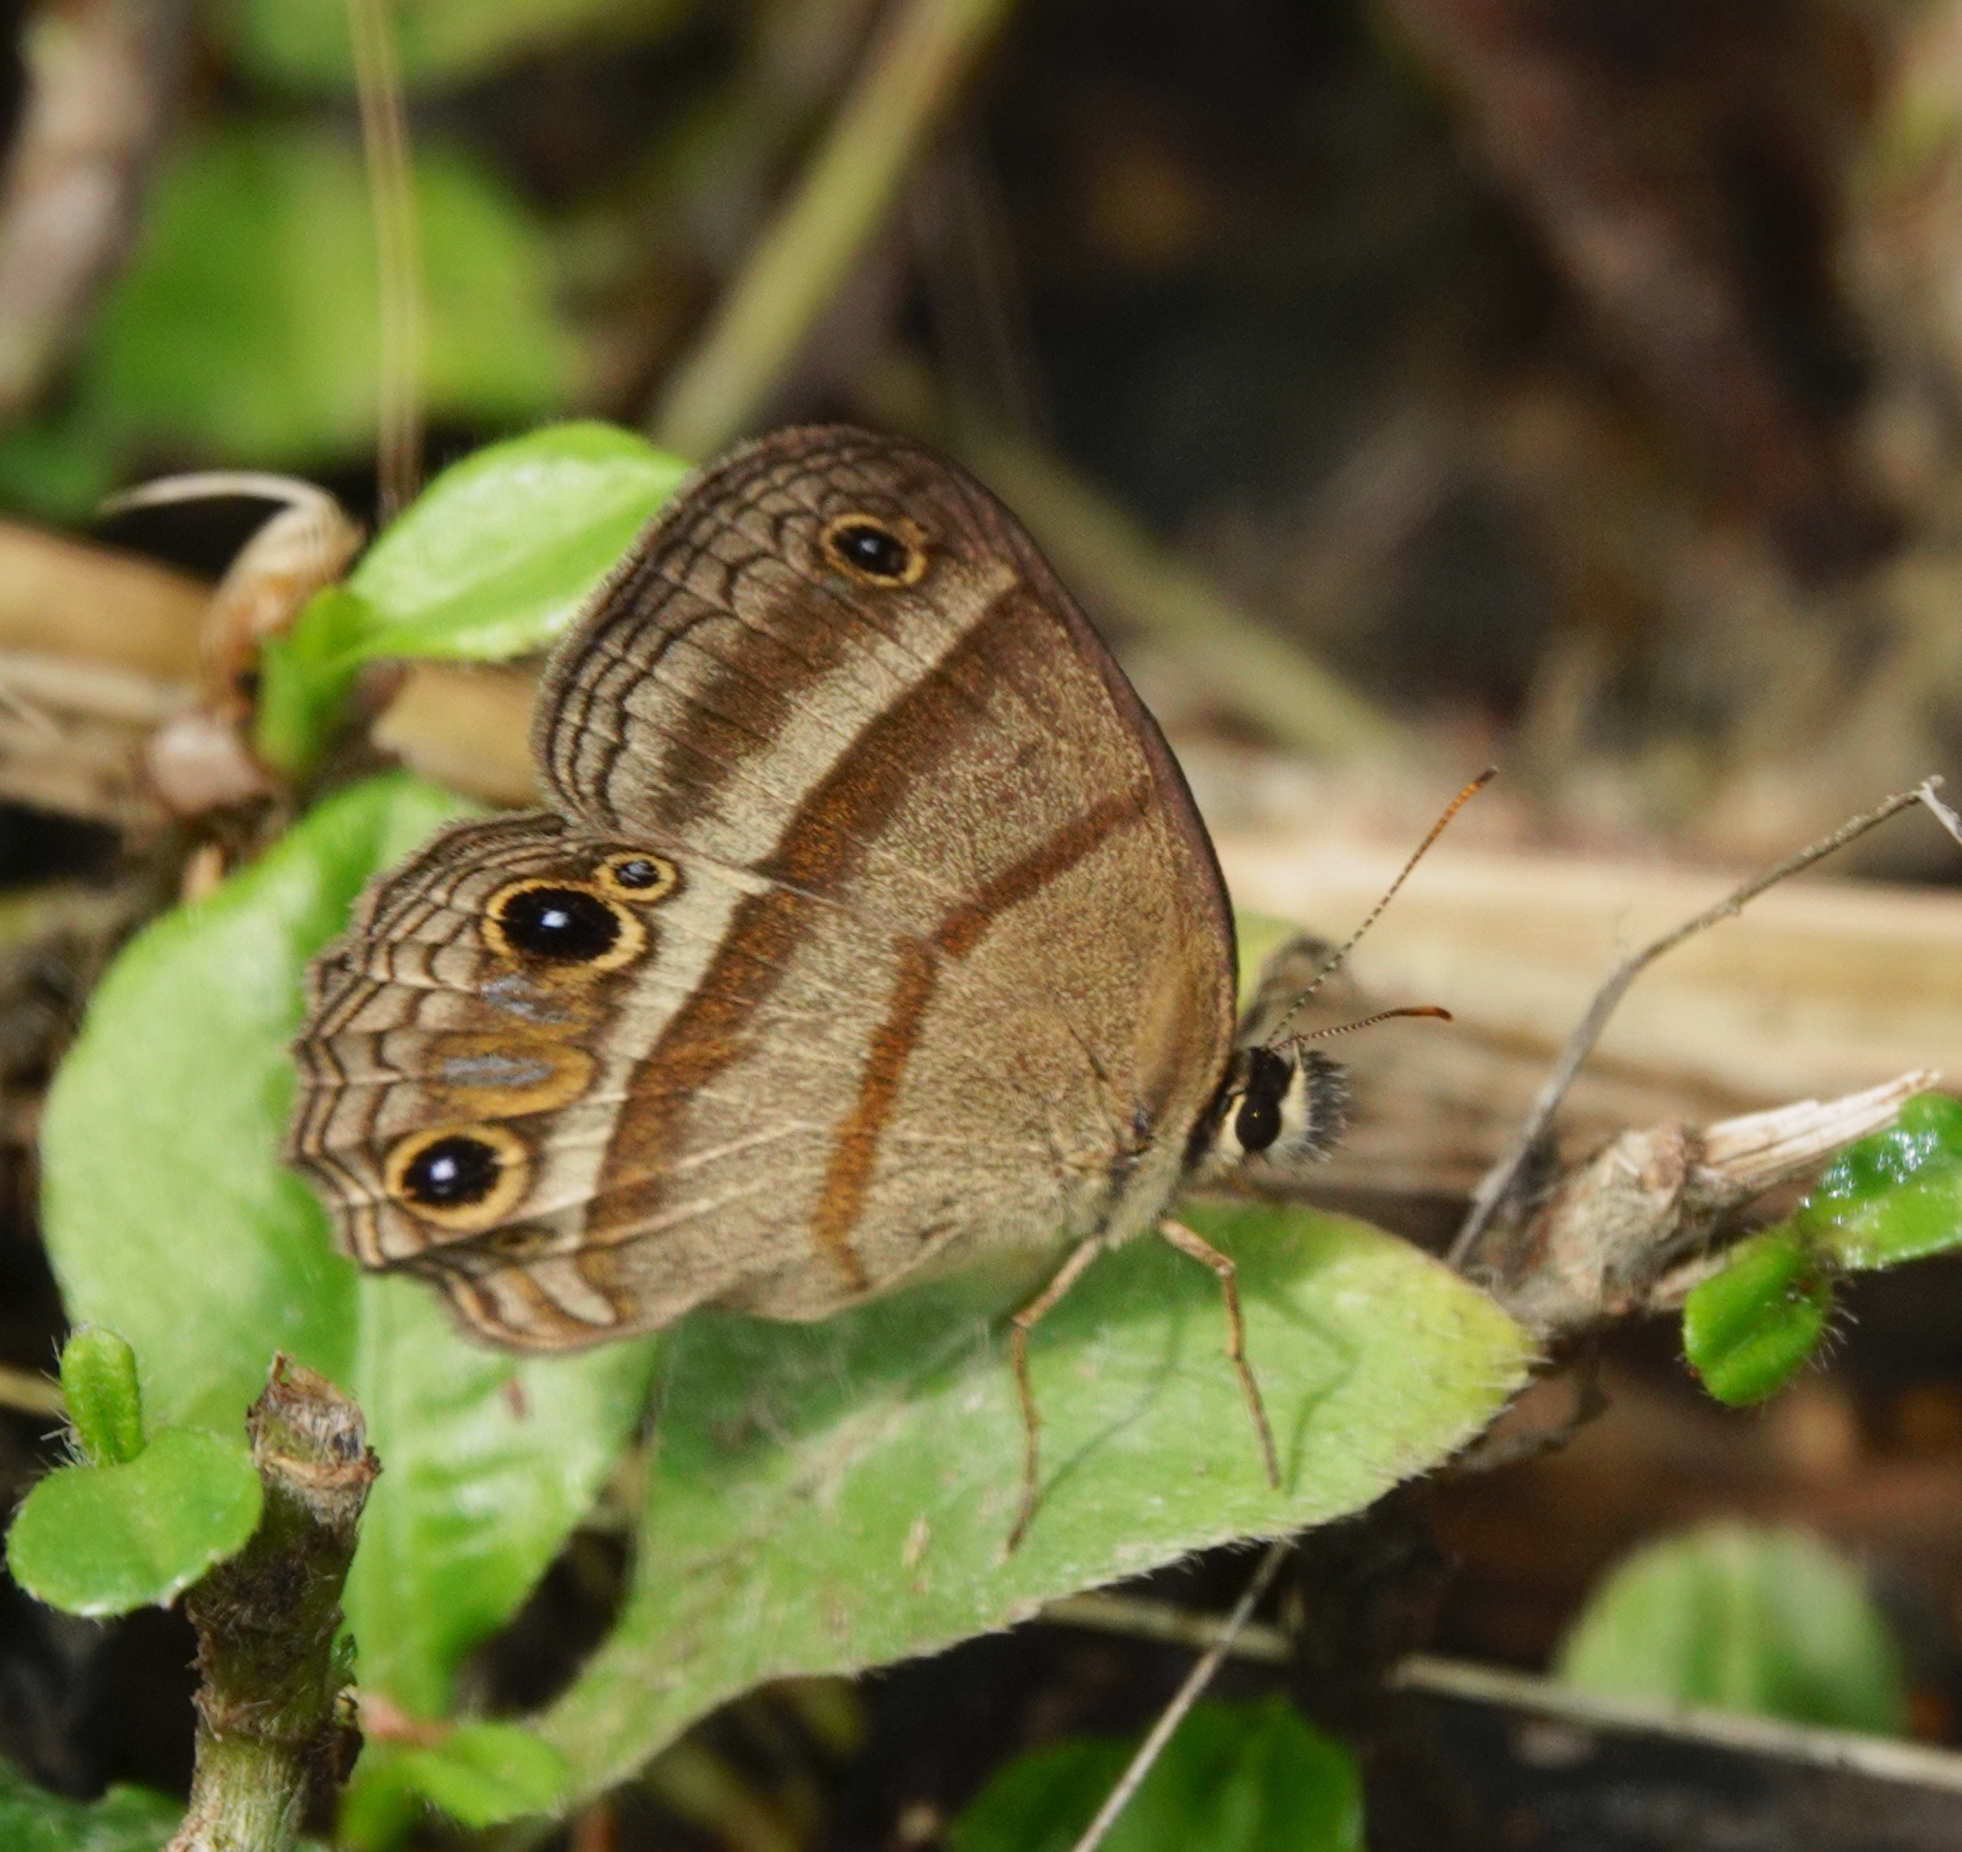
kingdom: Animalia
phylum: Arthropoda
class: Insecta
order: Lepidoptera
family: Nymphalidae
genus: Euptychia
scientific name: Euptychia Cissia proba
